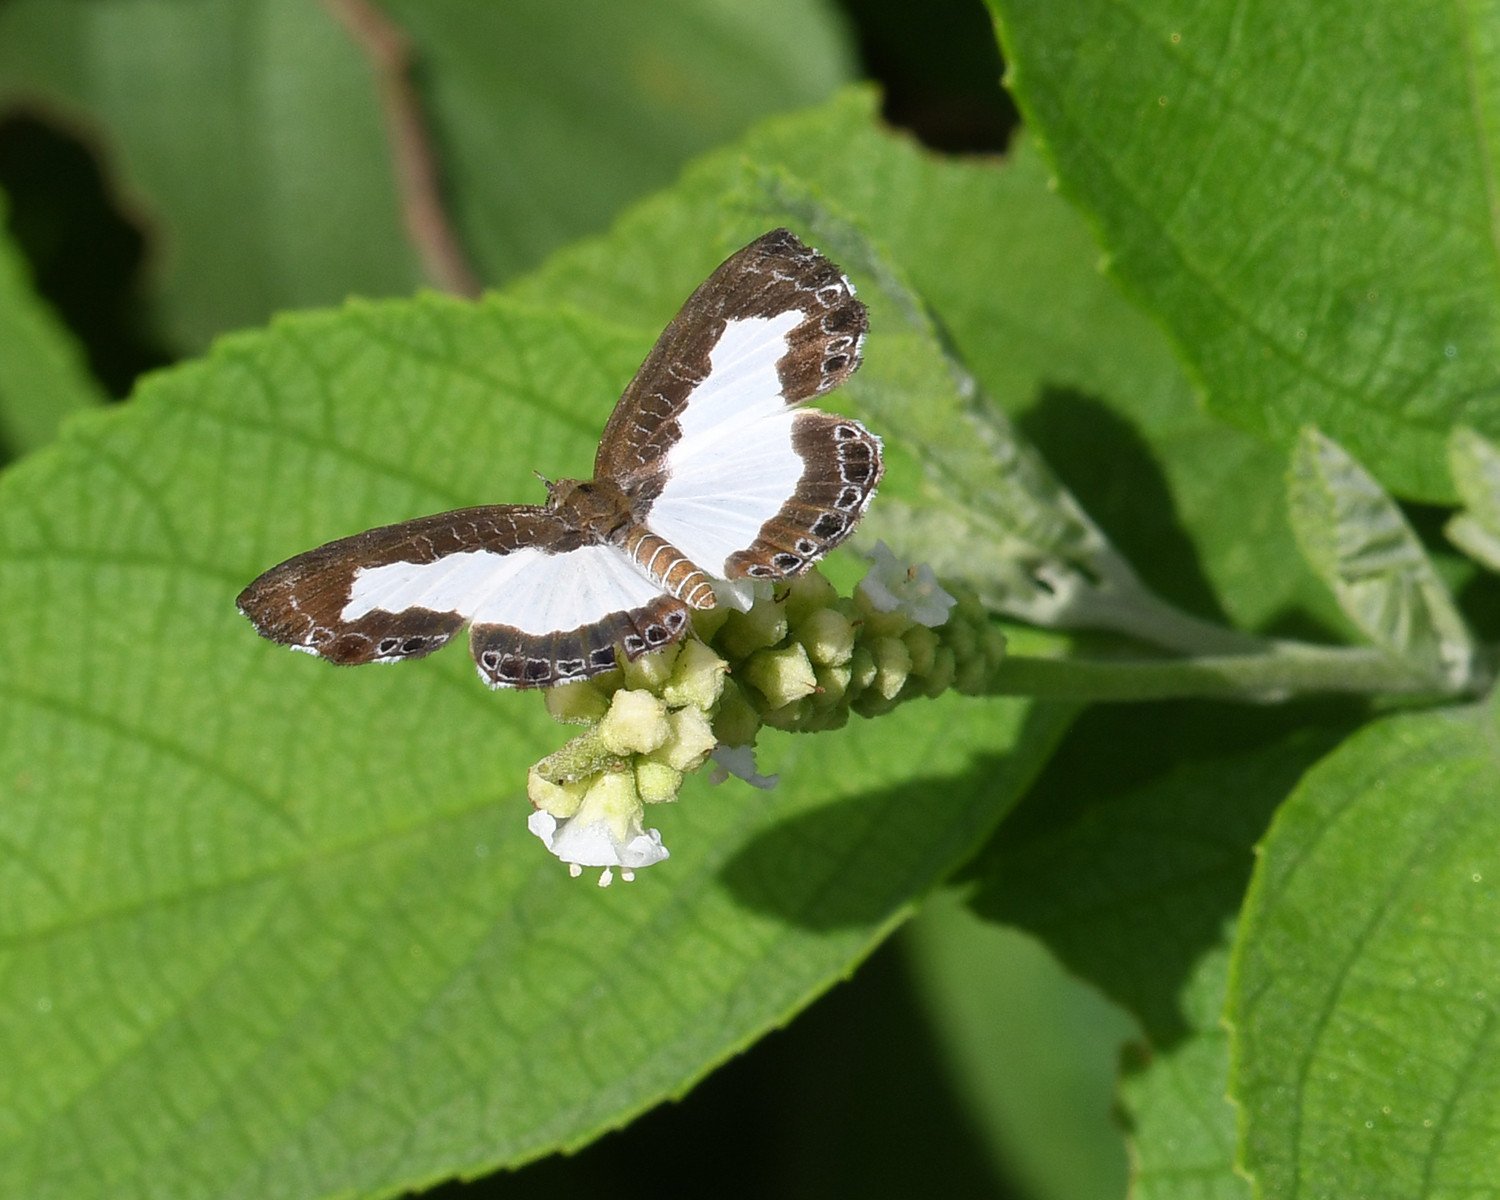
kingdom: Animalia
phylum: Arthropoda
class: Insecta
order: Lepidoptera
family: Riodinidae
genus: Juditha
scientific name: Juditha lamis
